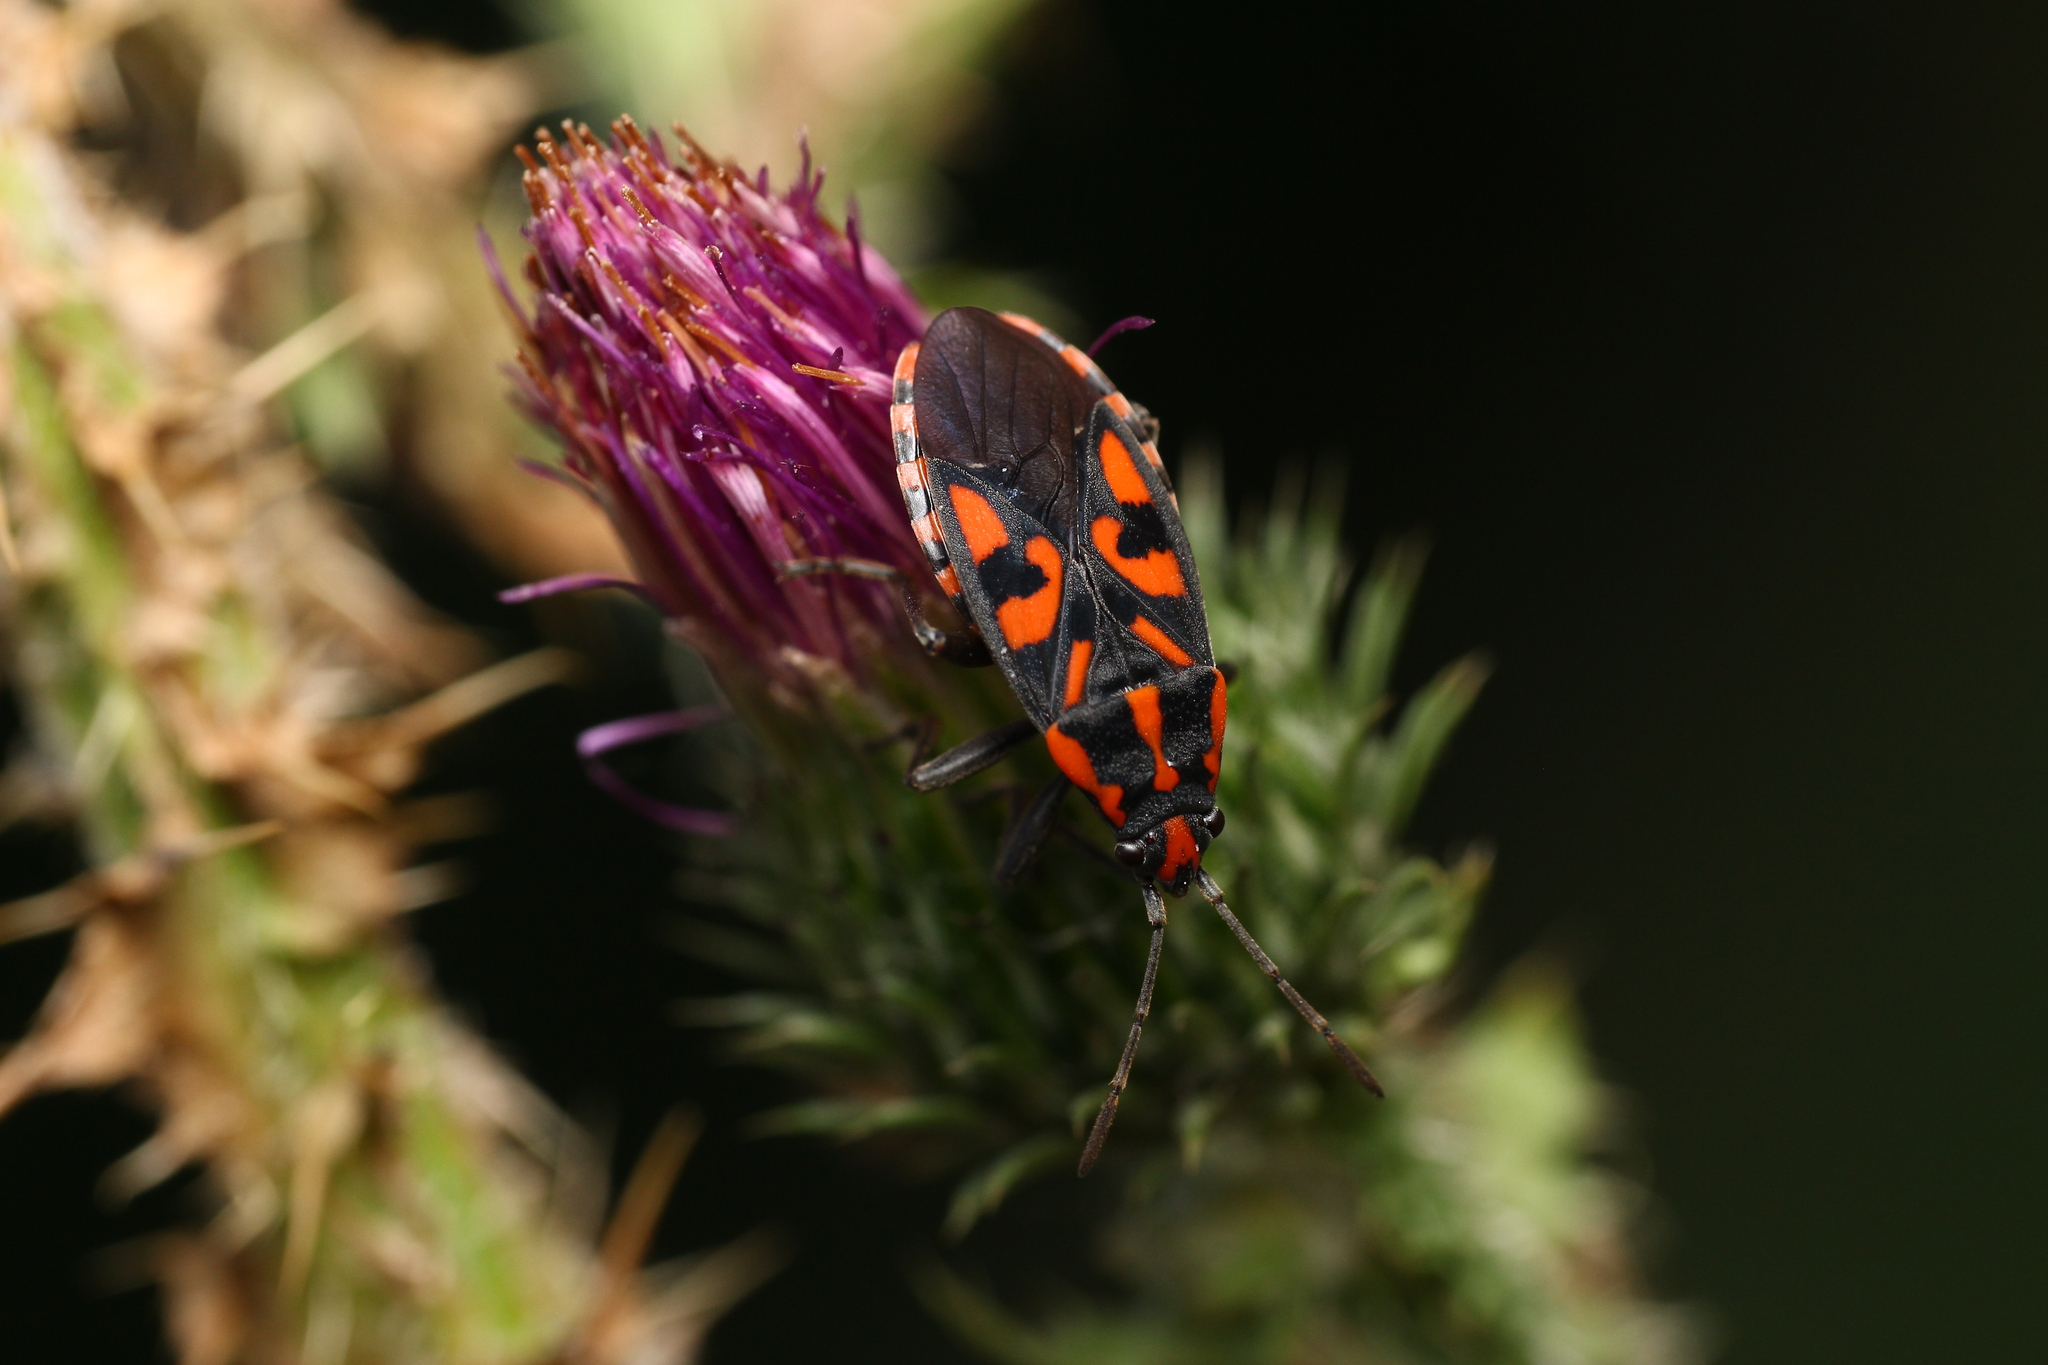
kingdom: Animalia
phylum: Arthropoda
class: Insecta
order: Hemiptera
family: Lygaeidae
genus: Spilostethus
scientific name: Spilostethus saxatilis
